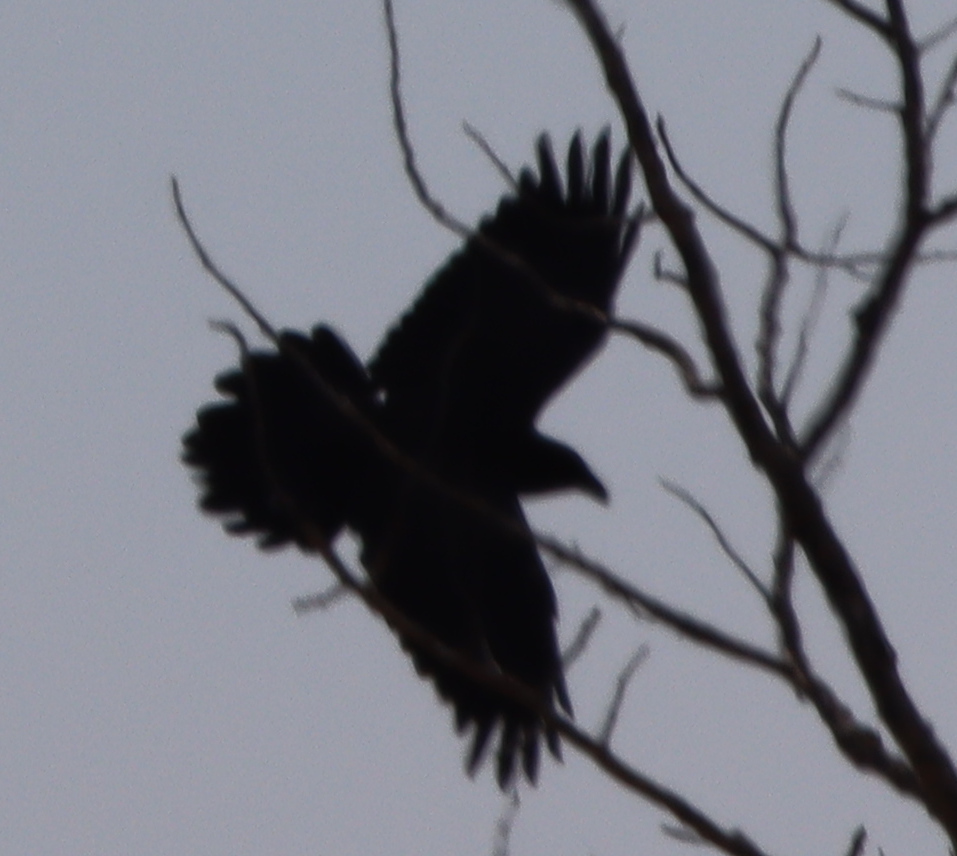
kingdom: Animalia
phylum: Chordata
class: Aves
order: Passeriformes
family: Corvidae
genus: Corvus
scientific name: Corvus corax
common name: Common raven
